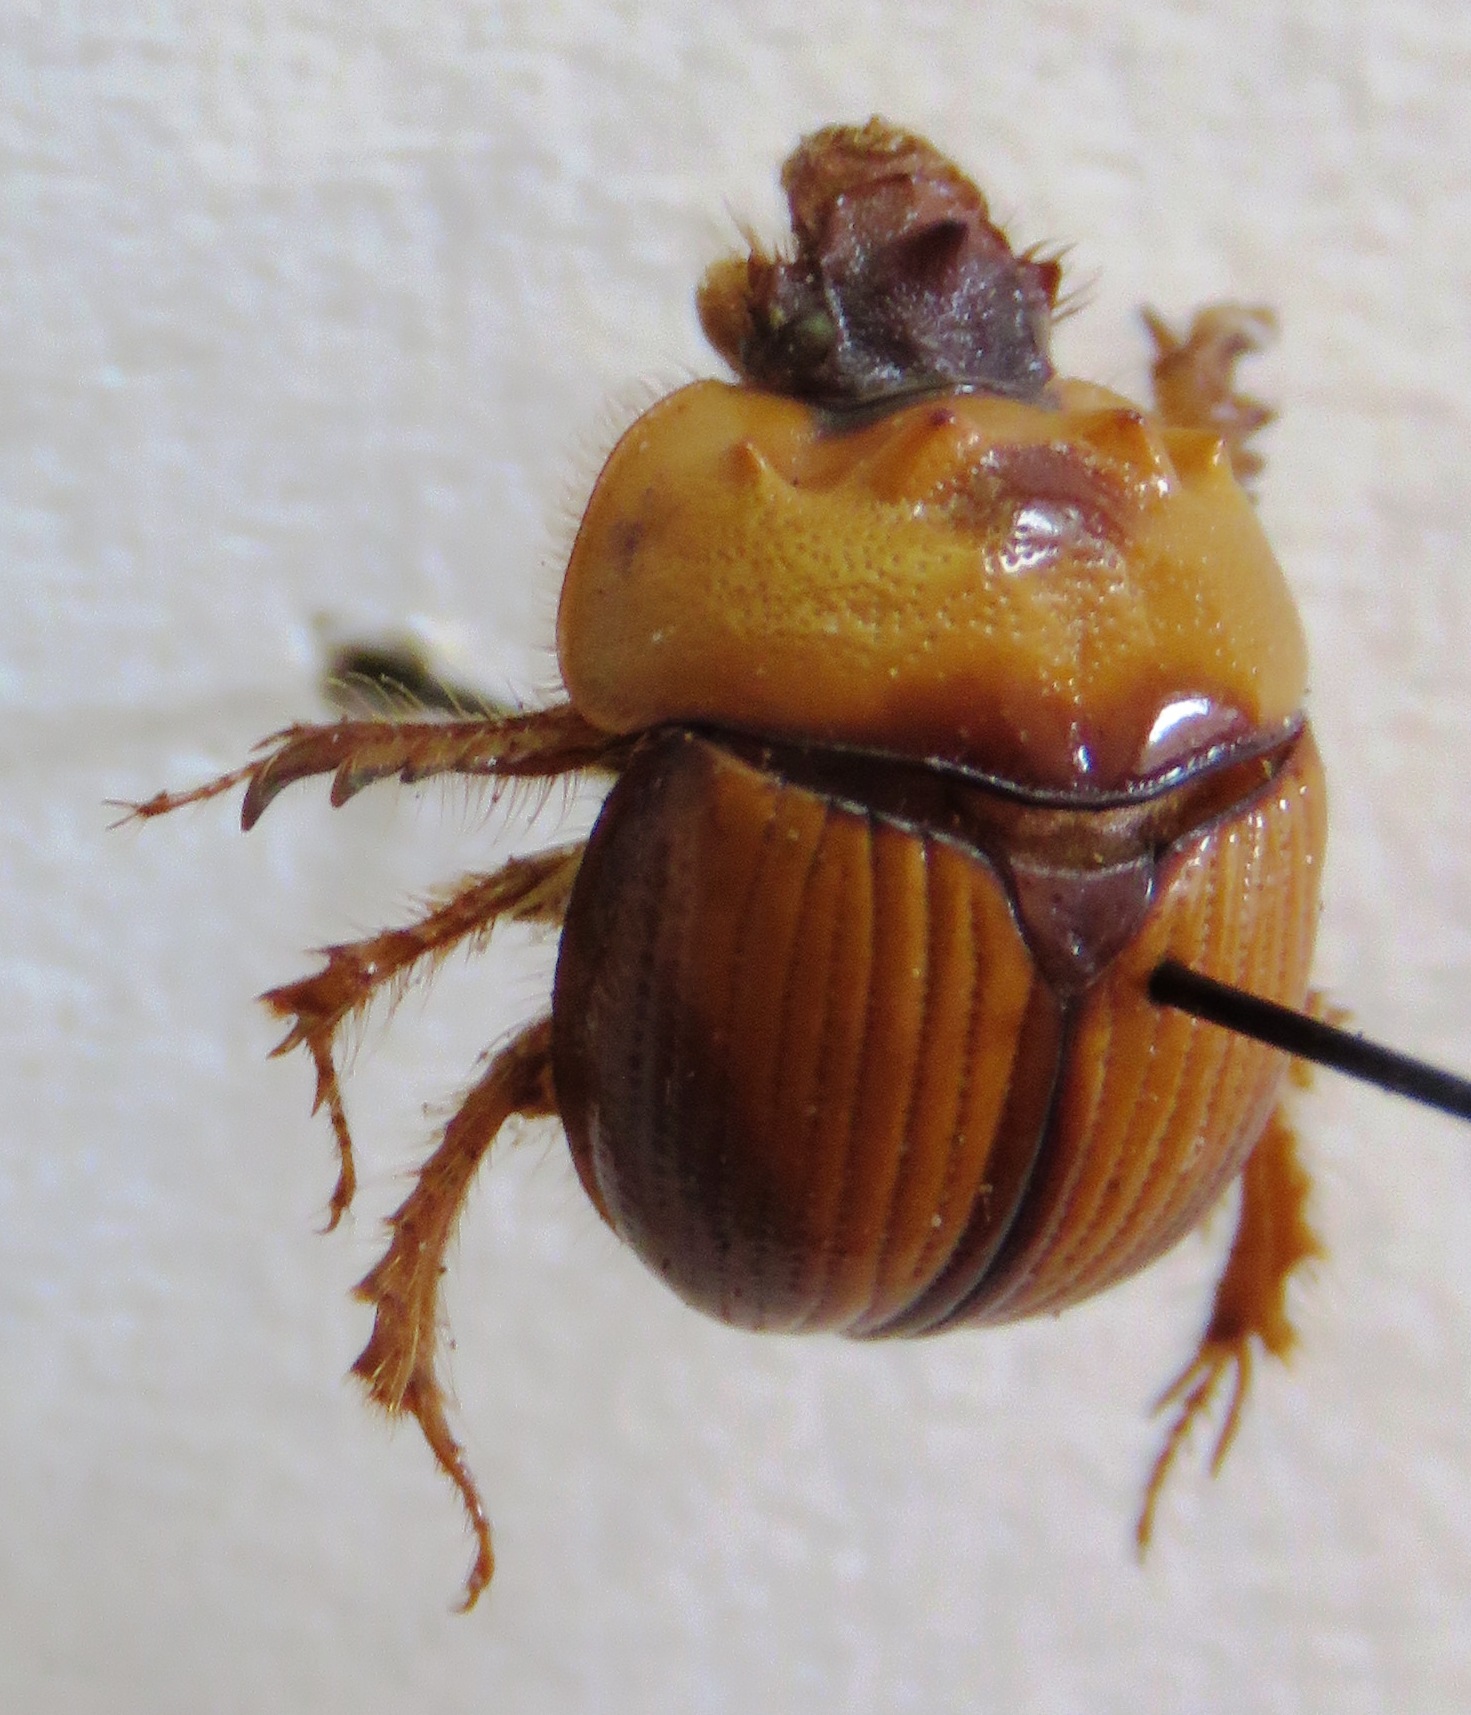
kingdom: Animalia
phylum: Arthropoda
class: Insecta
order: Coleoptera
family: Geotrupidae
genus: Bolbocerosoma
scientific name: Bolbocerosoma tumefactum
